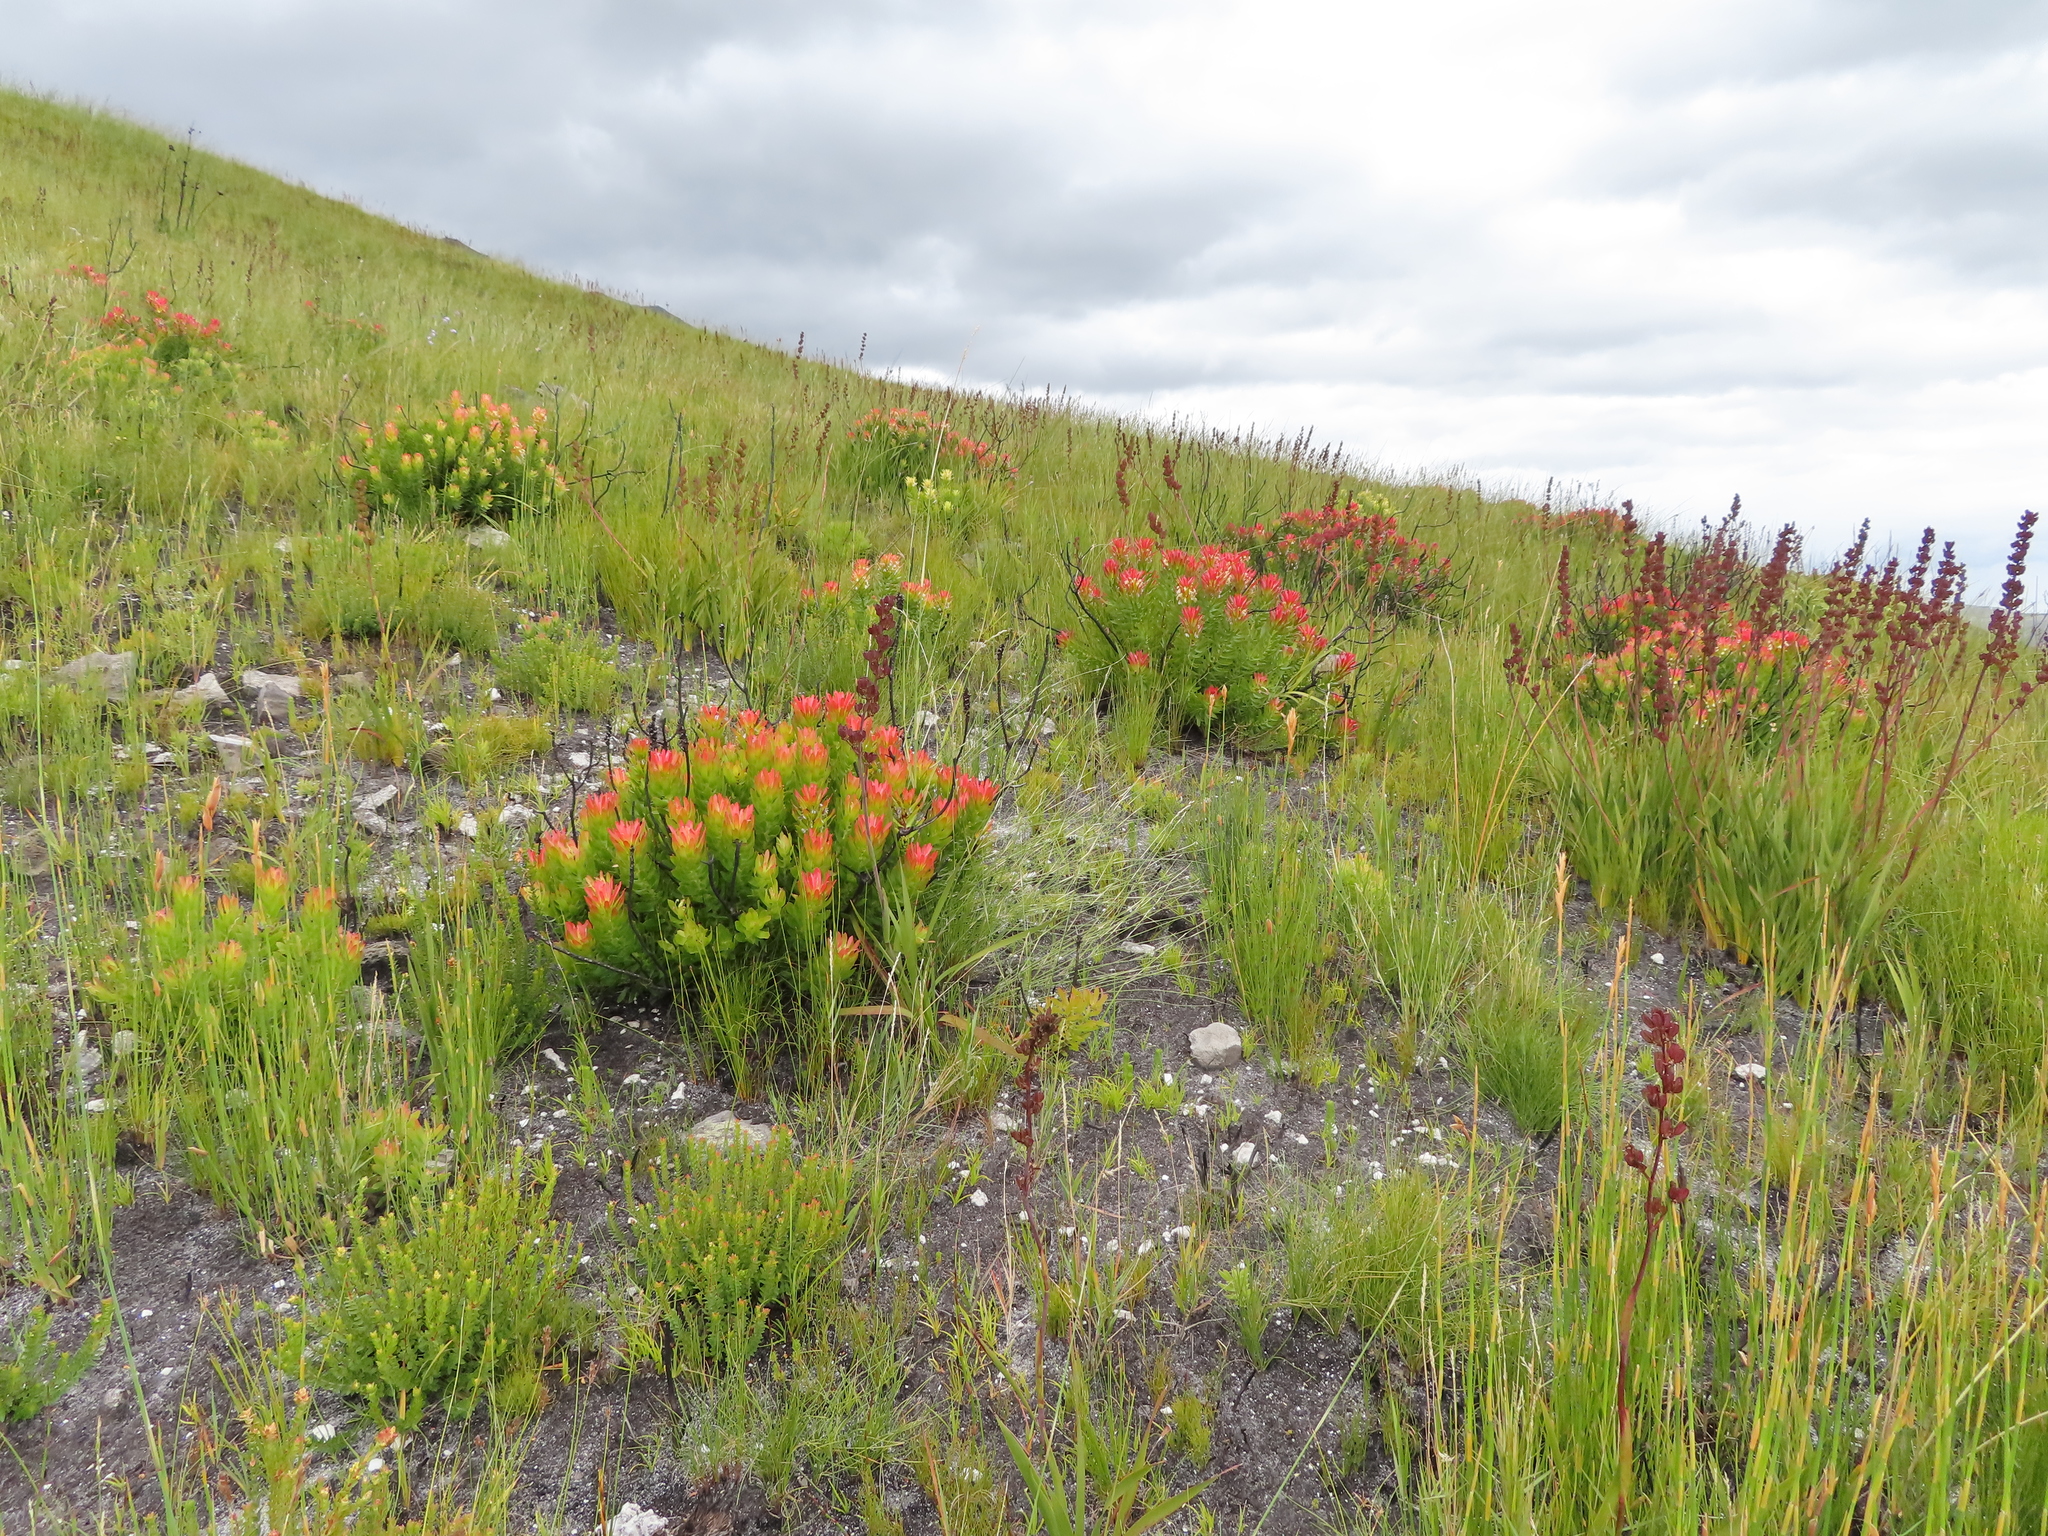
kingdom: Plantae
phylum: Tracheophyta
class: Magnoliopsida
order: Proteales
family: Proteaceae
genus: Mimetes
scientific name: Mimetes cucullatus
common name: Common pagoda
